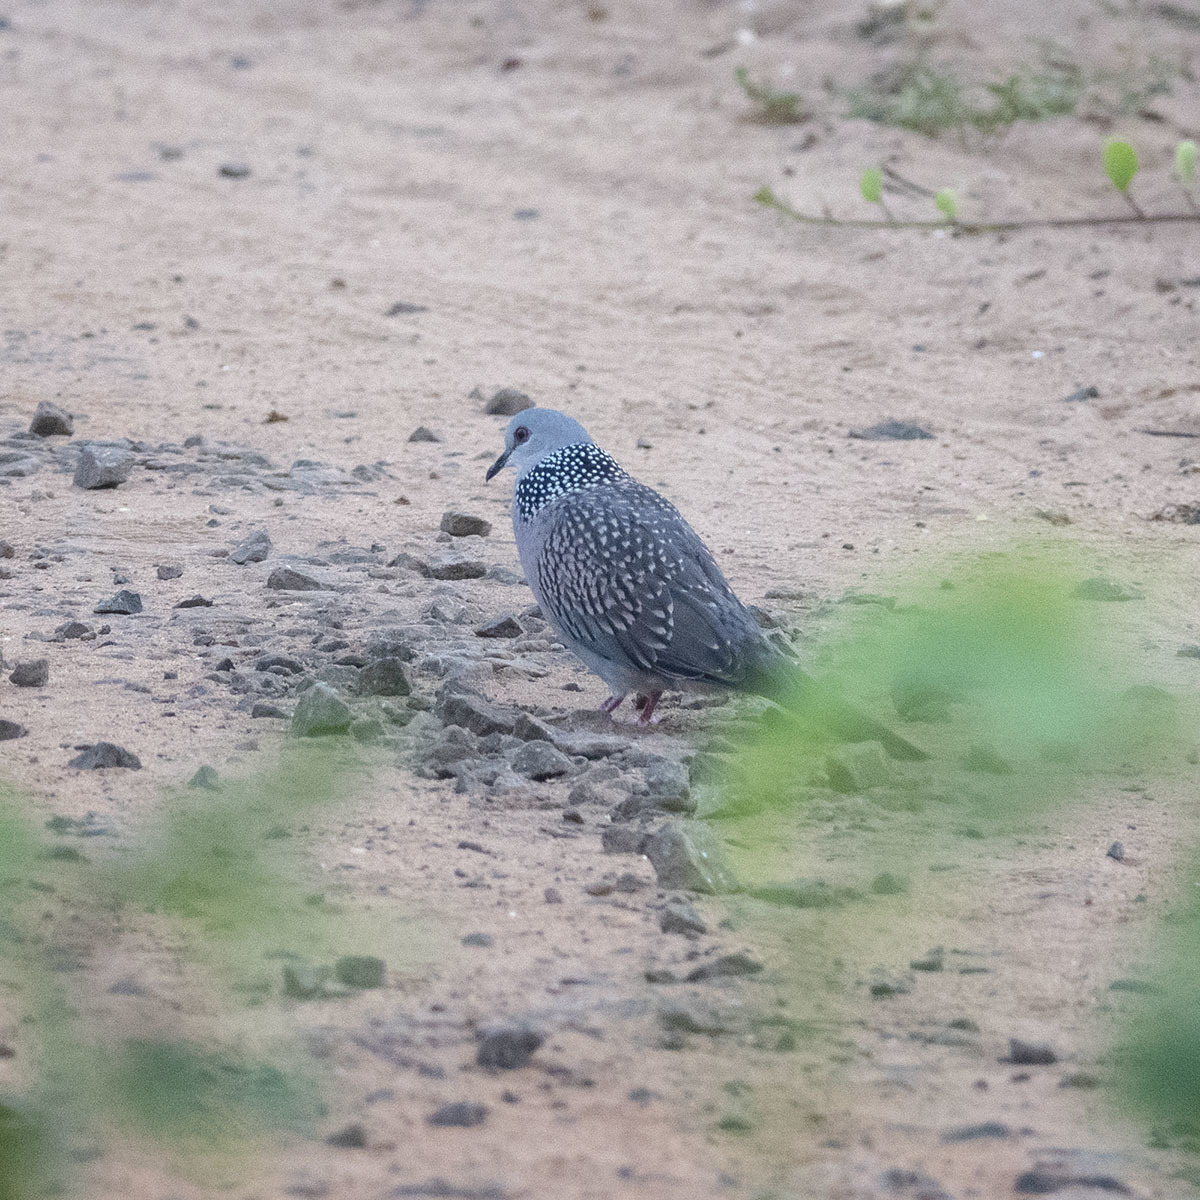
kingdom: Animalia
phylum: Chordata
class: Aves
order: Columbiformes
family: Columbidae
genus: Spilopelia
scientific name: Spilopelia chinensis
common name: Spotted dove
